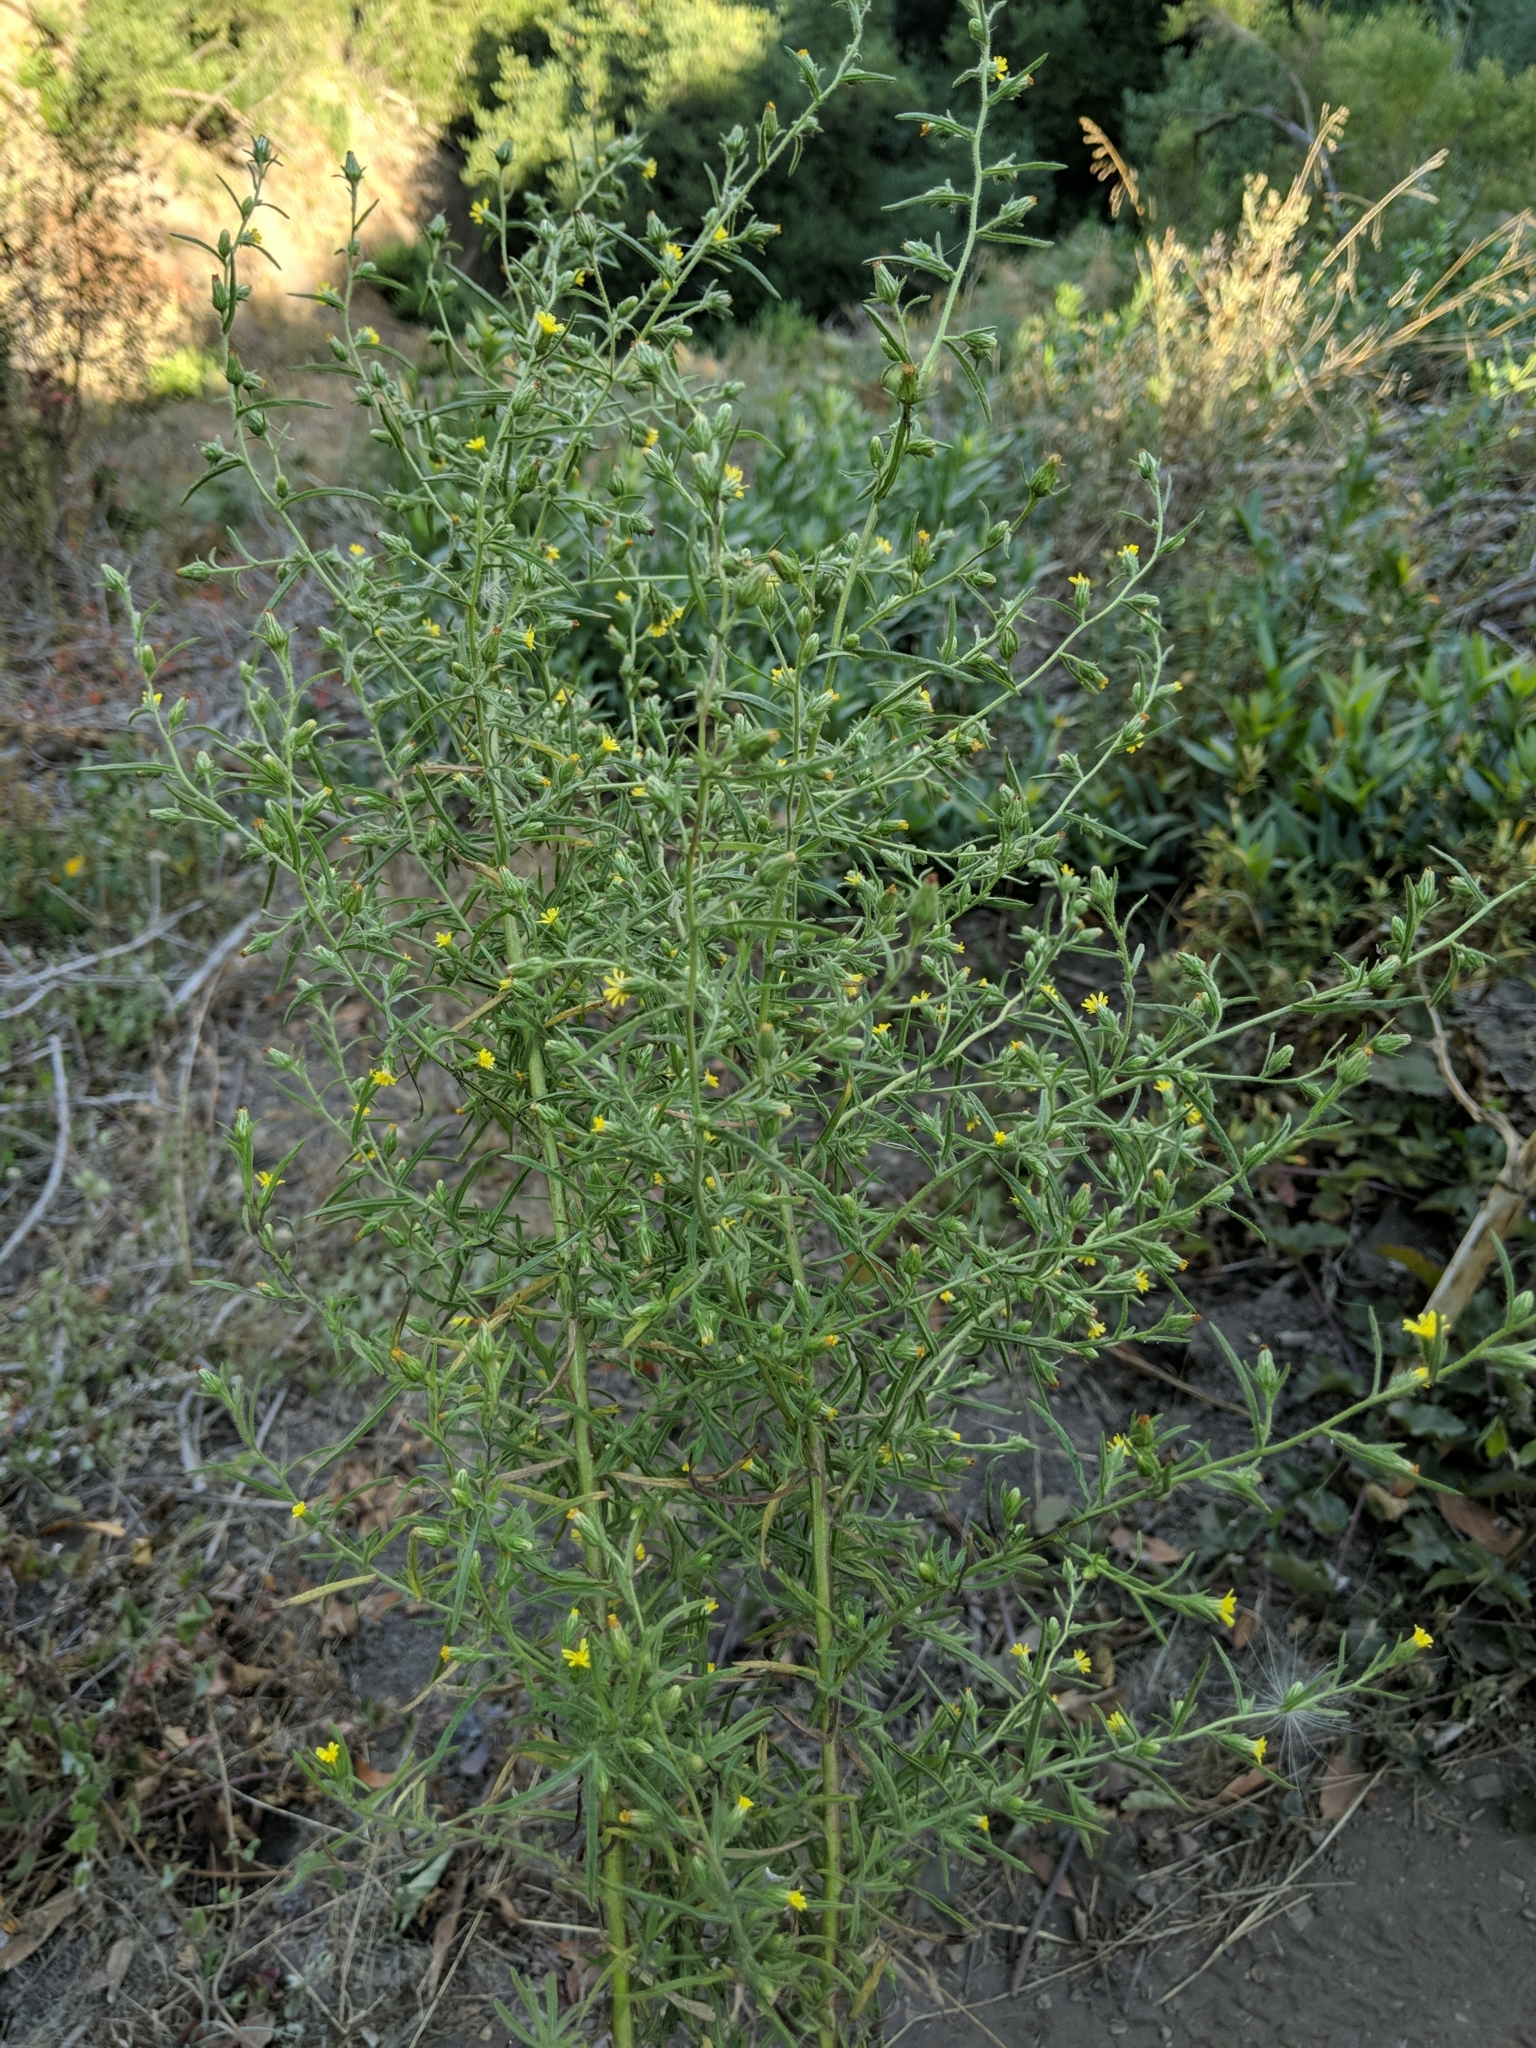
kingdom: Plantae
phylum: Tracheophyta
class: Magnoliopsida
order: Asterales
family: Asteraceae
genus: Dittrichia
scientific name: Dittrichia graveolens
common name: Stinking fleabane
